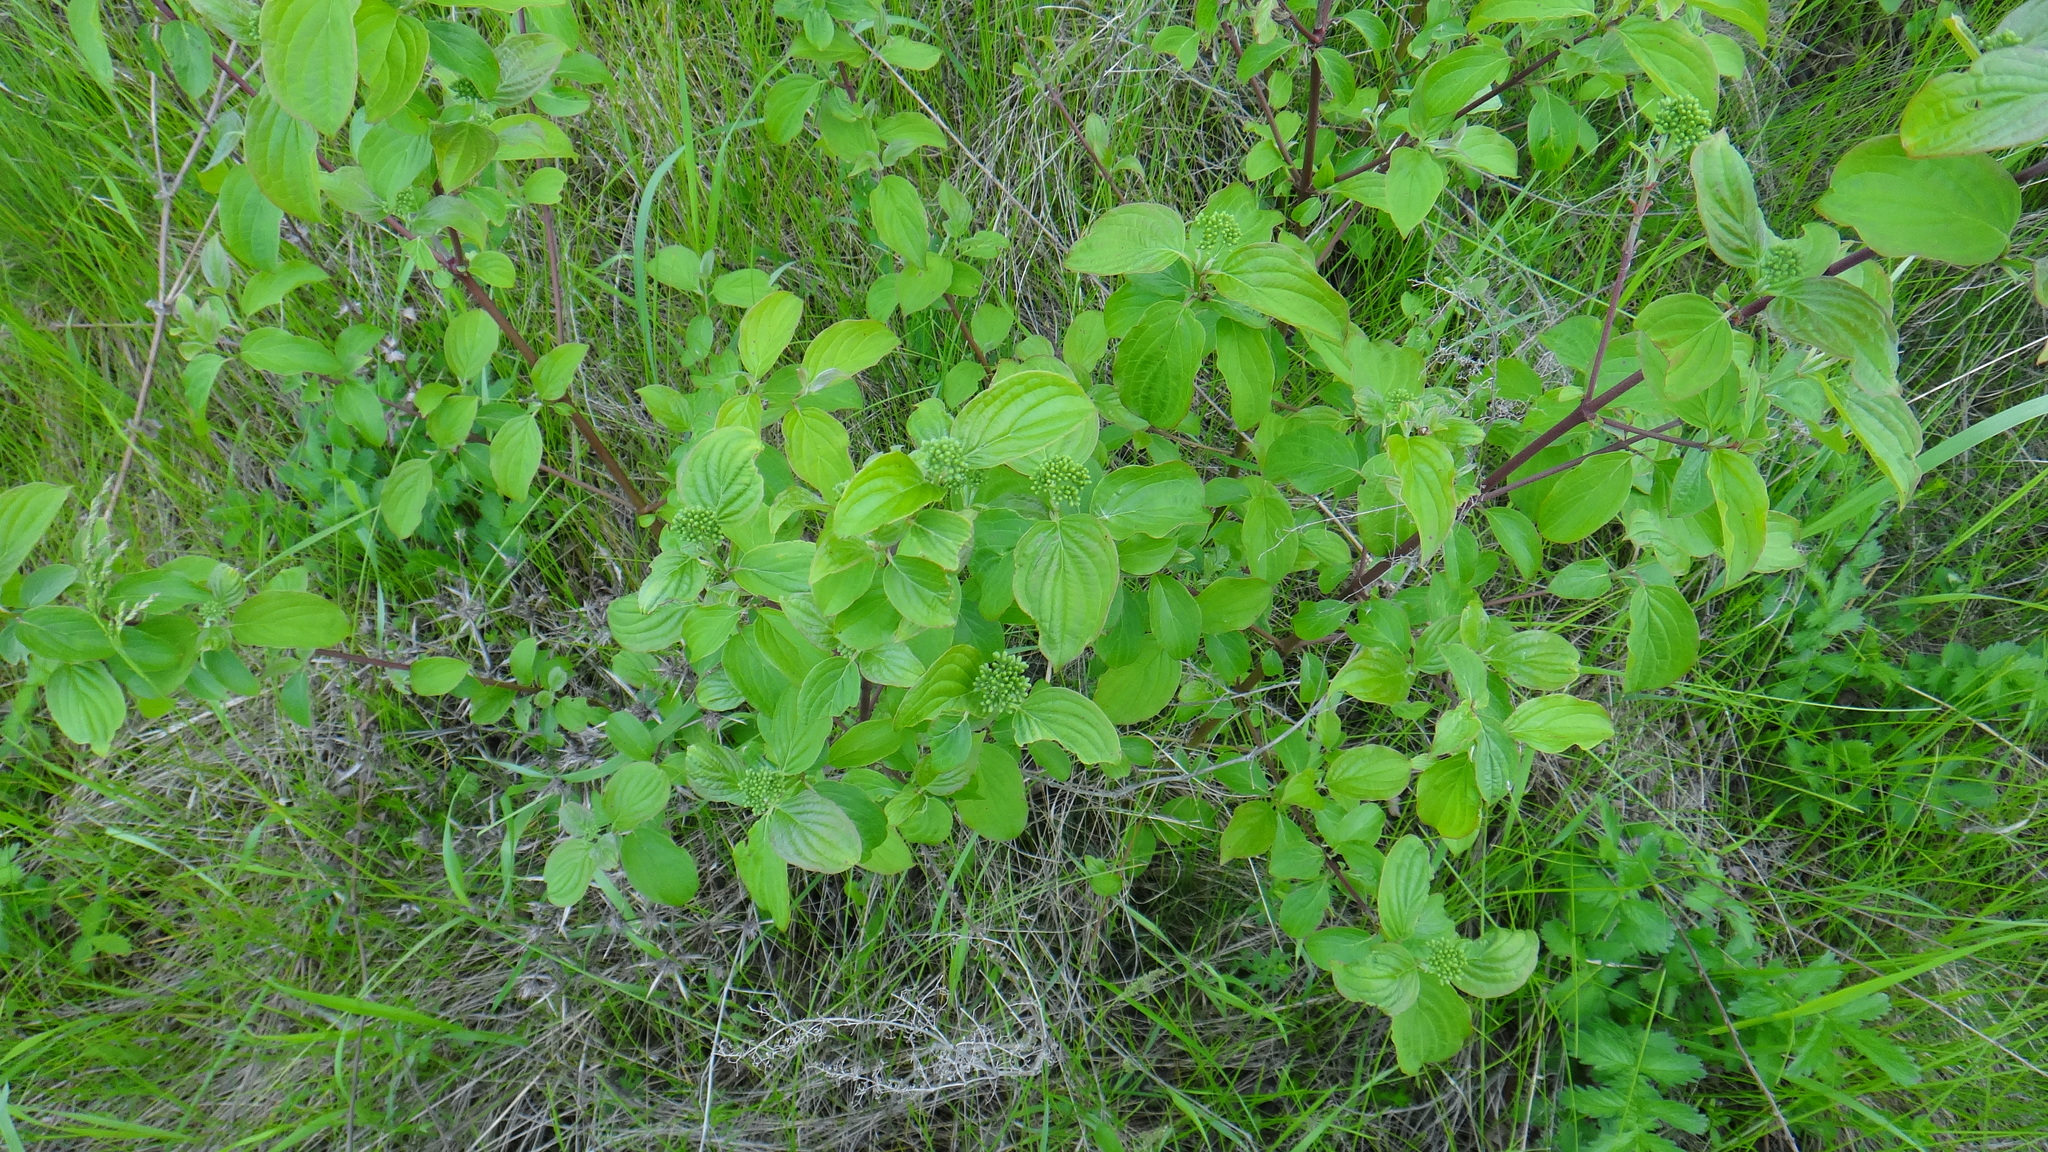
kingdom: Plantae
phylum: Tracheophyta
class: Magnoliopsida
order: Cornales
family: Cornaceae
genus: Cornus
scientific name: Cornus sanguinea
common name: Dogwood
